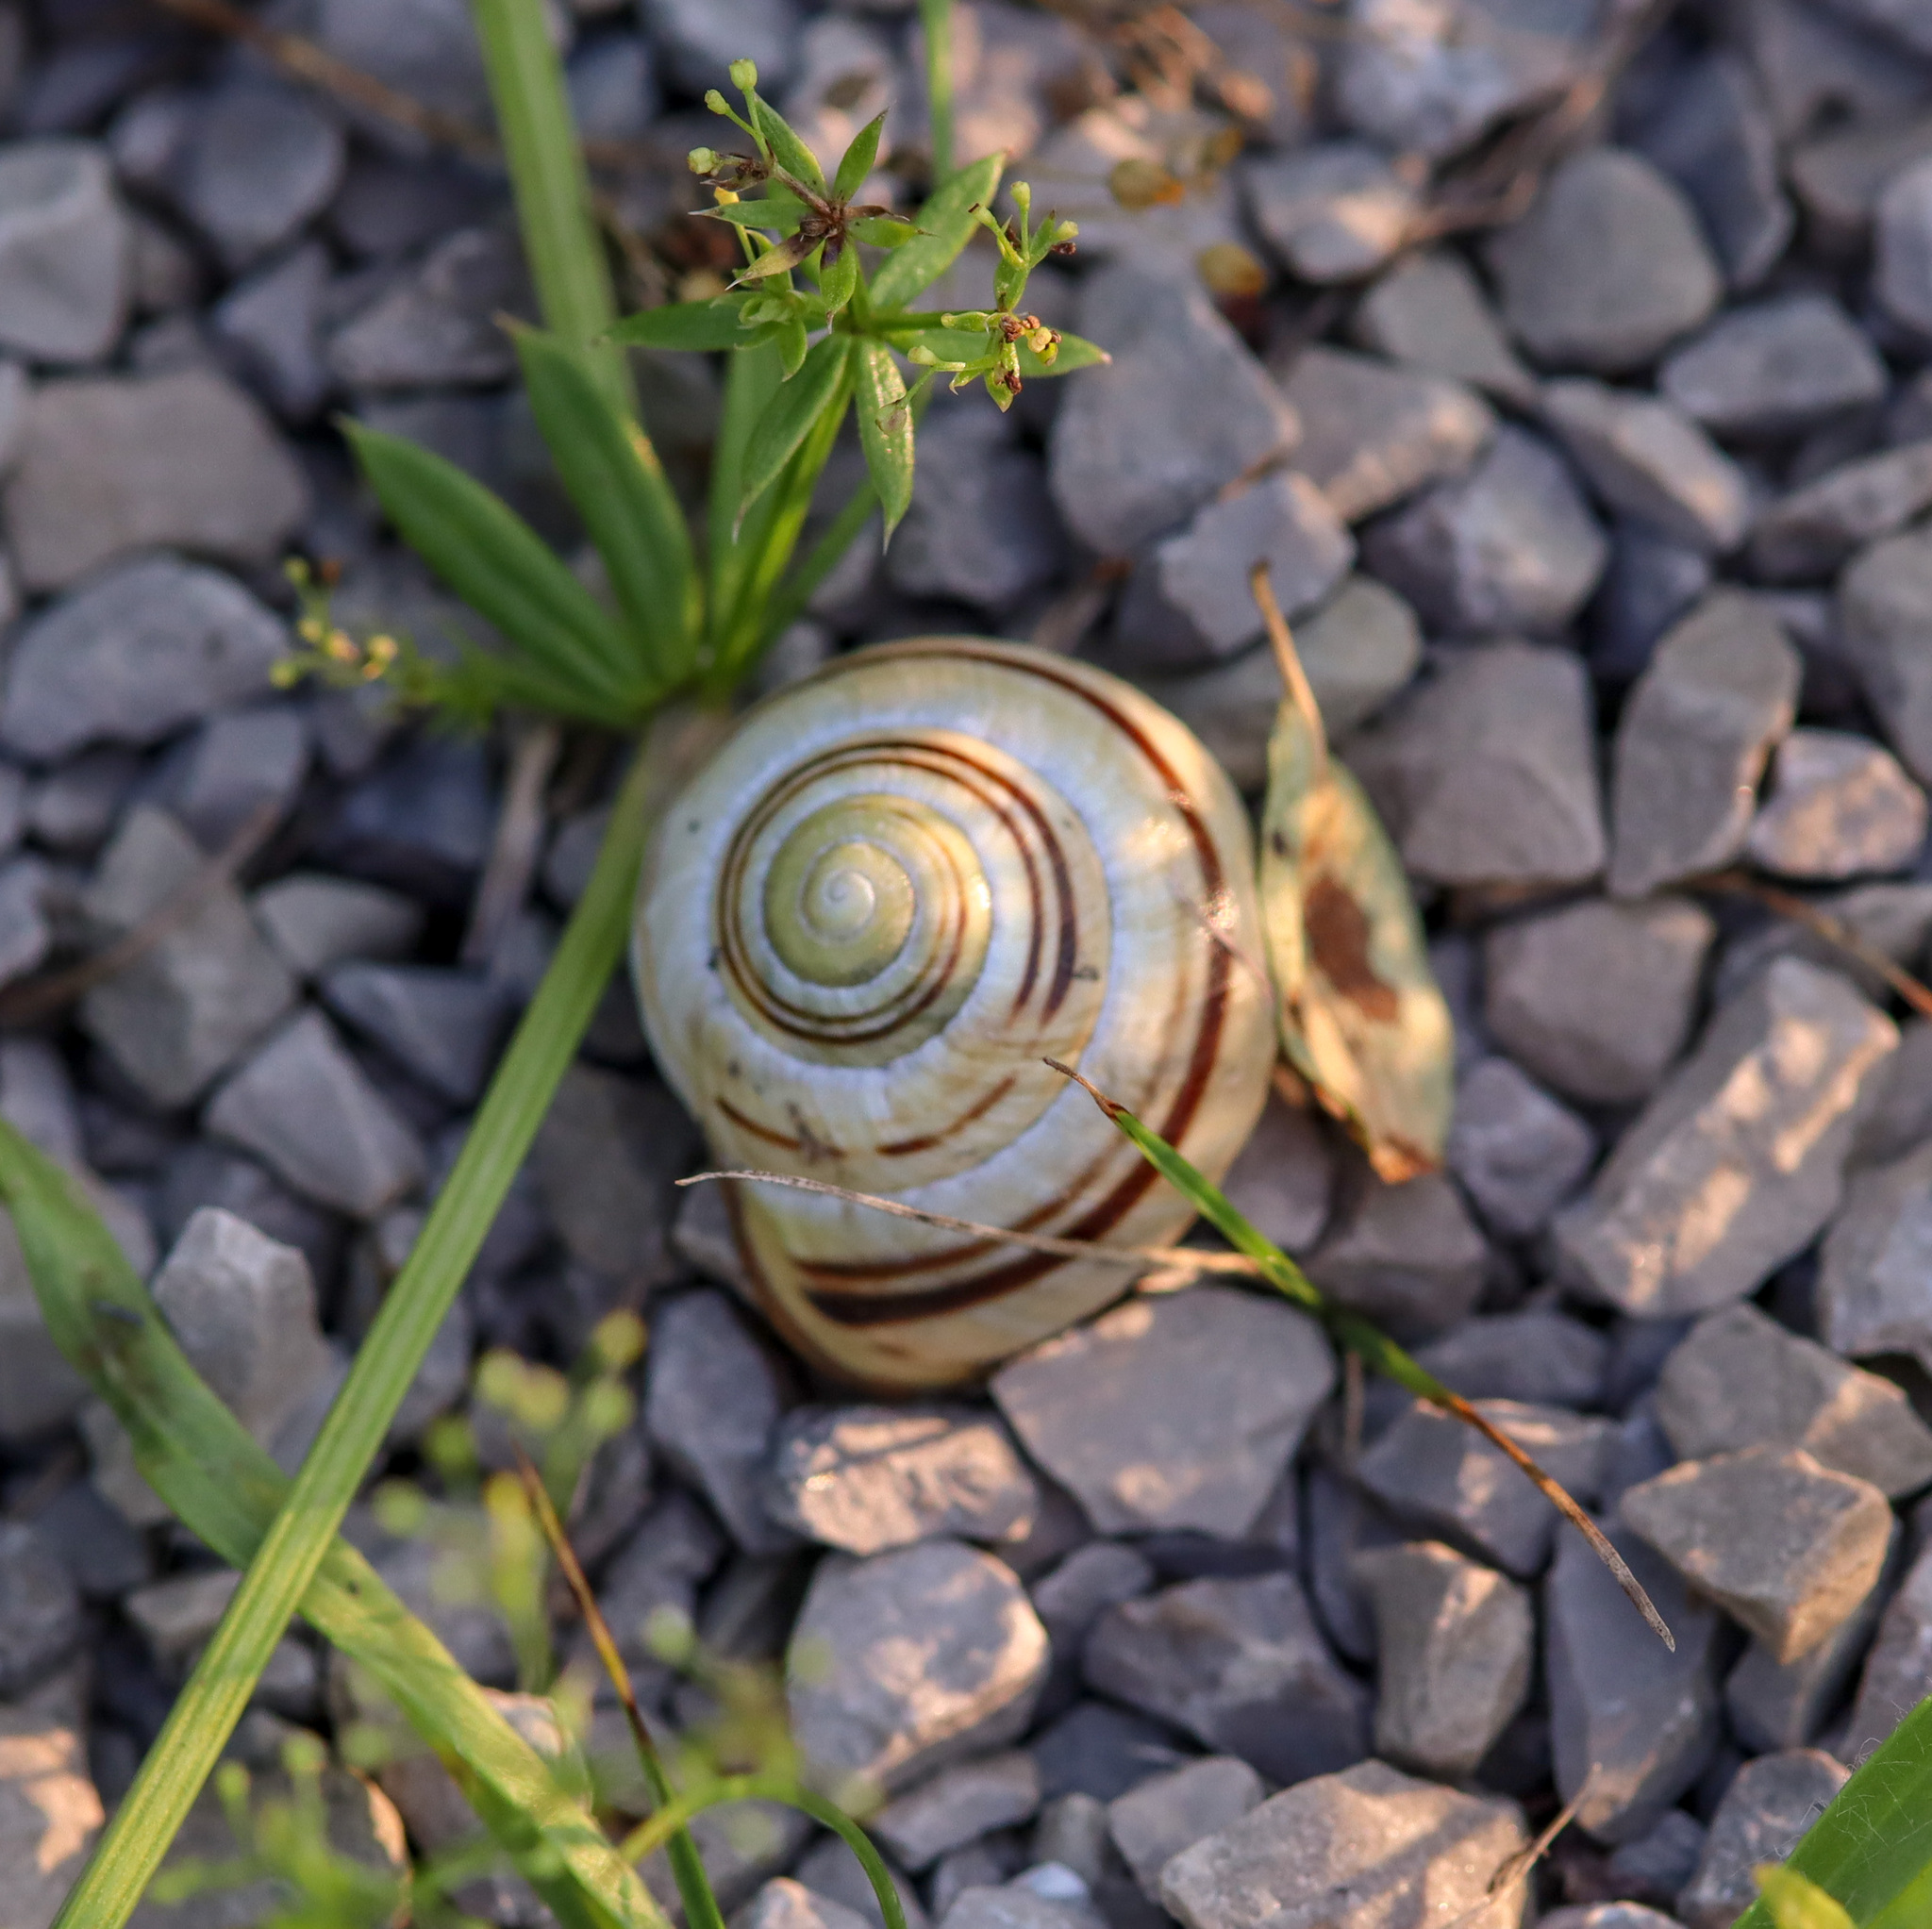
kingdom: Animalia
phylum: Mollusca
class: Gastropoda
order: Stylommatophora
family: Helicidae
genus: Cepaea
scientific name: Cepaea nemoralis
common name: Grovesnail
